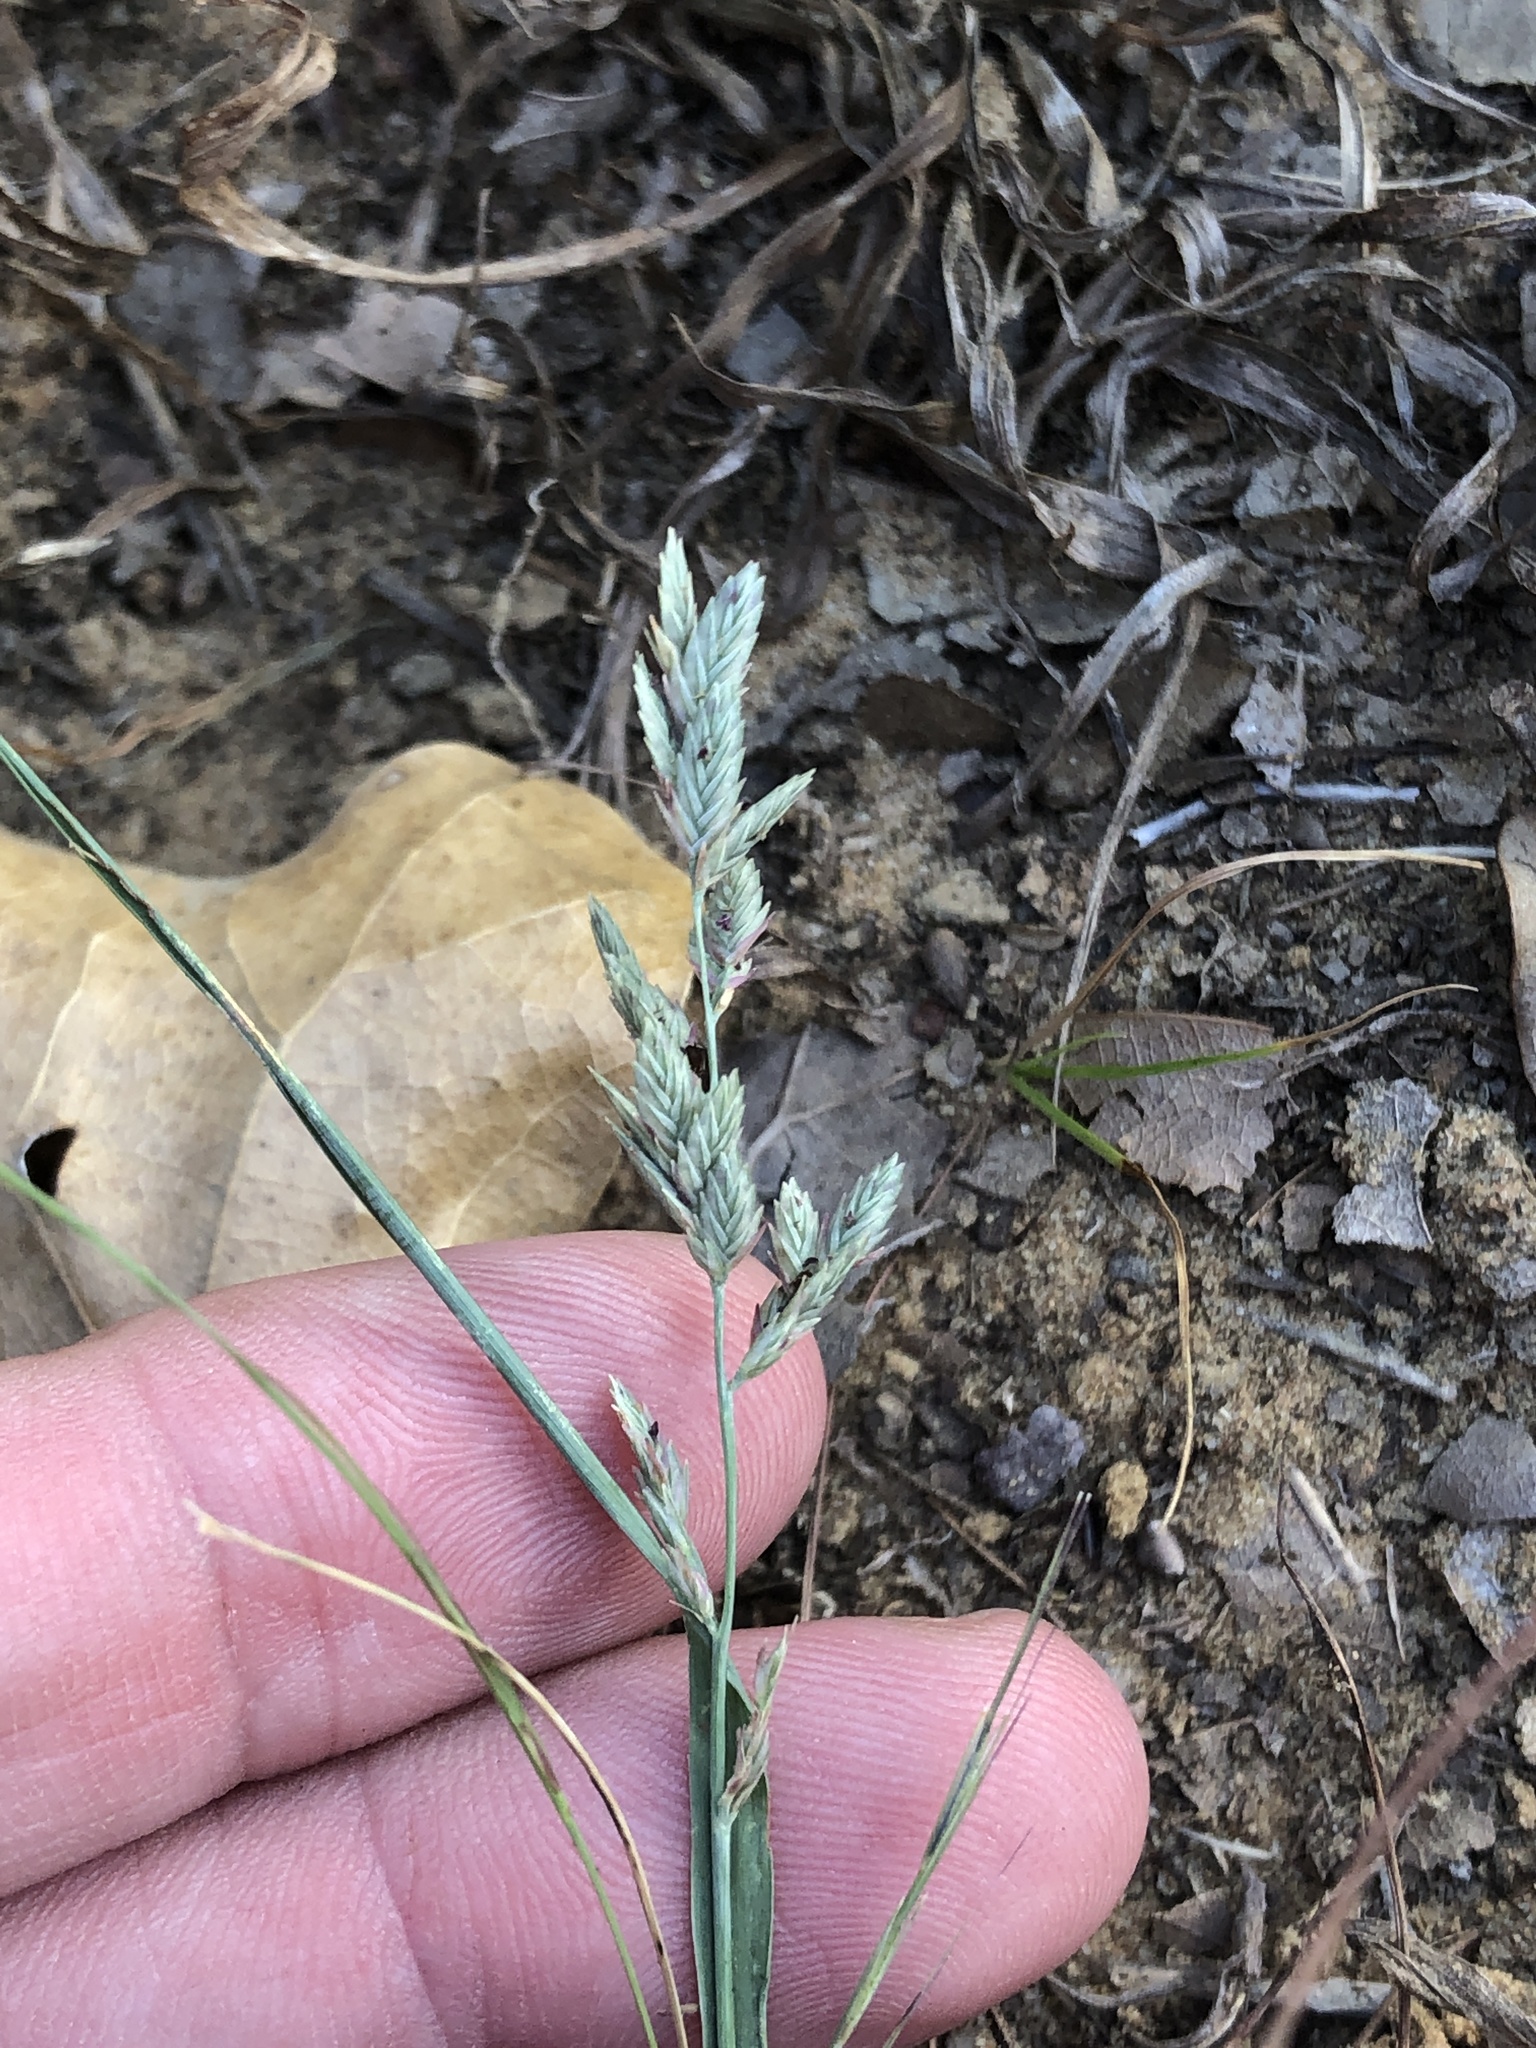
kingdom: Plantae
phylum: Tracheophyta
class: Liliopsida
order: Poales
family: Poaceae
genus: Eragrostis
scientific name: Eragrostis secundiflora
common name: Red love grass
